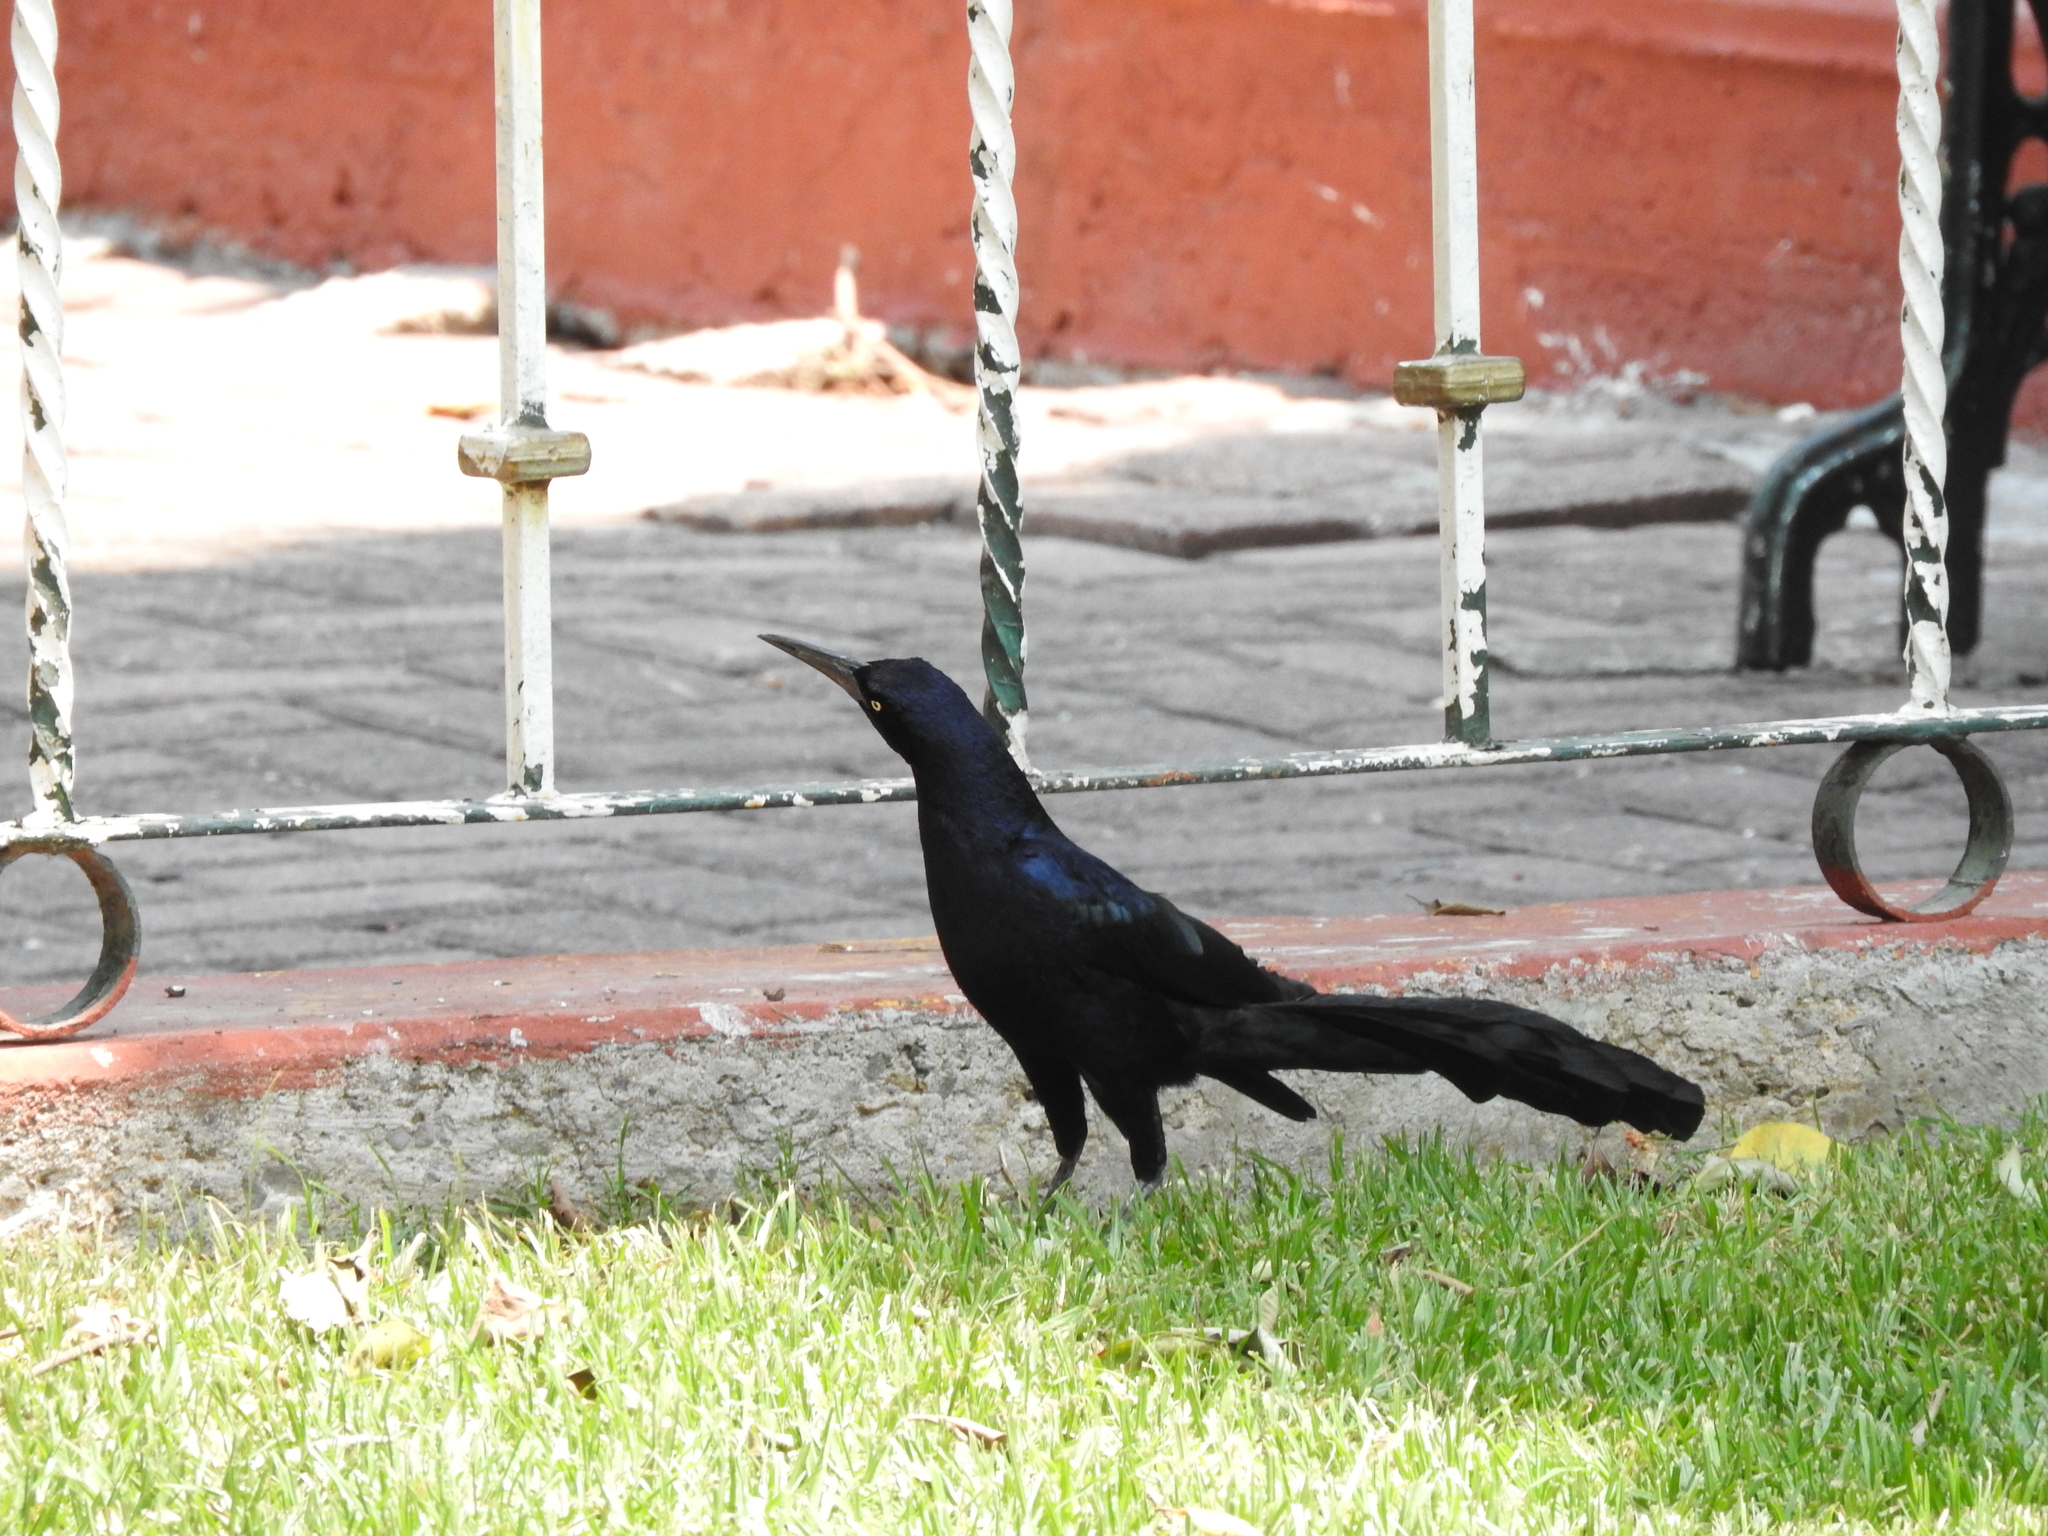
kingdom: Animalia
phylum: Chordata
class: Aves
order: Passeriformes
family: Icteridae
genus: Quiscalus
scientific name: Quiscalus mexicanus
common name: Great-tailed grackle
